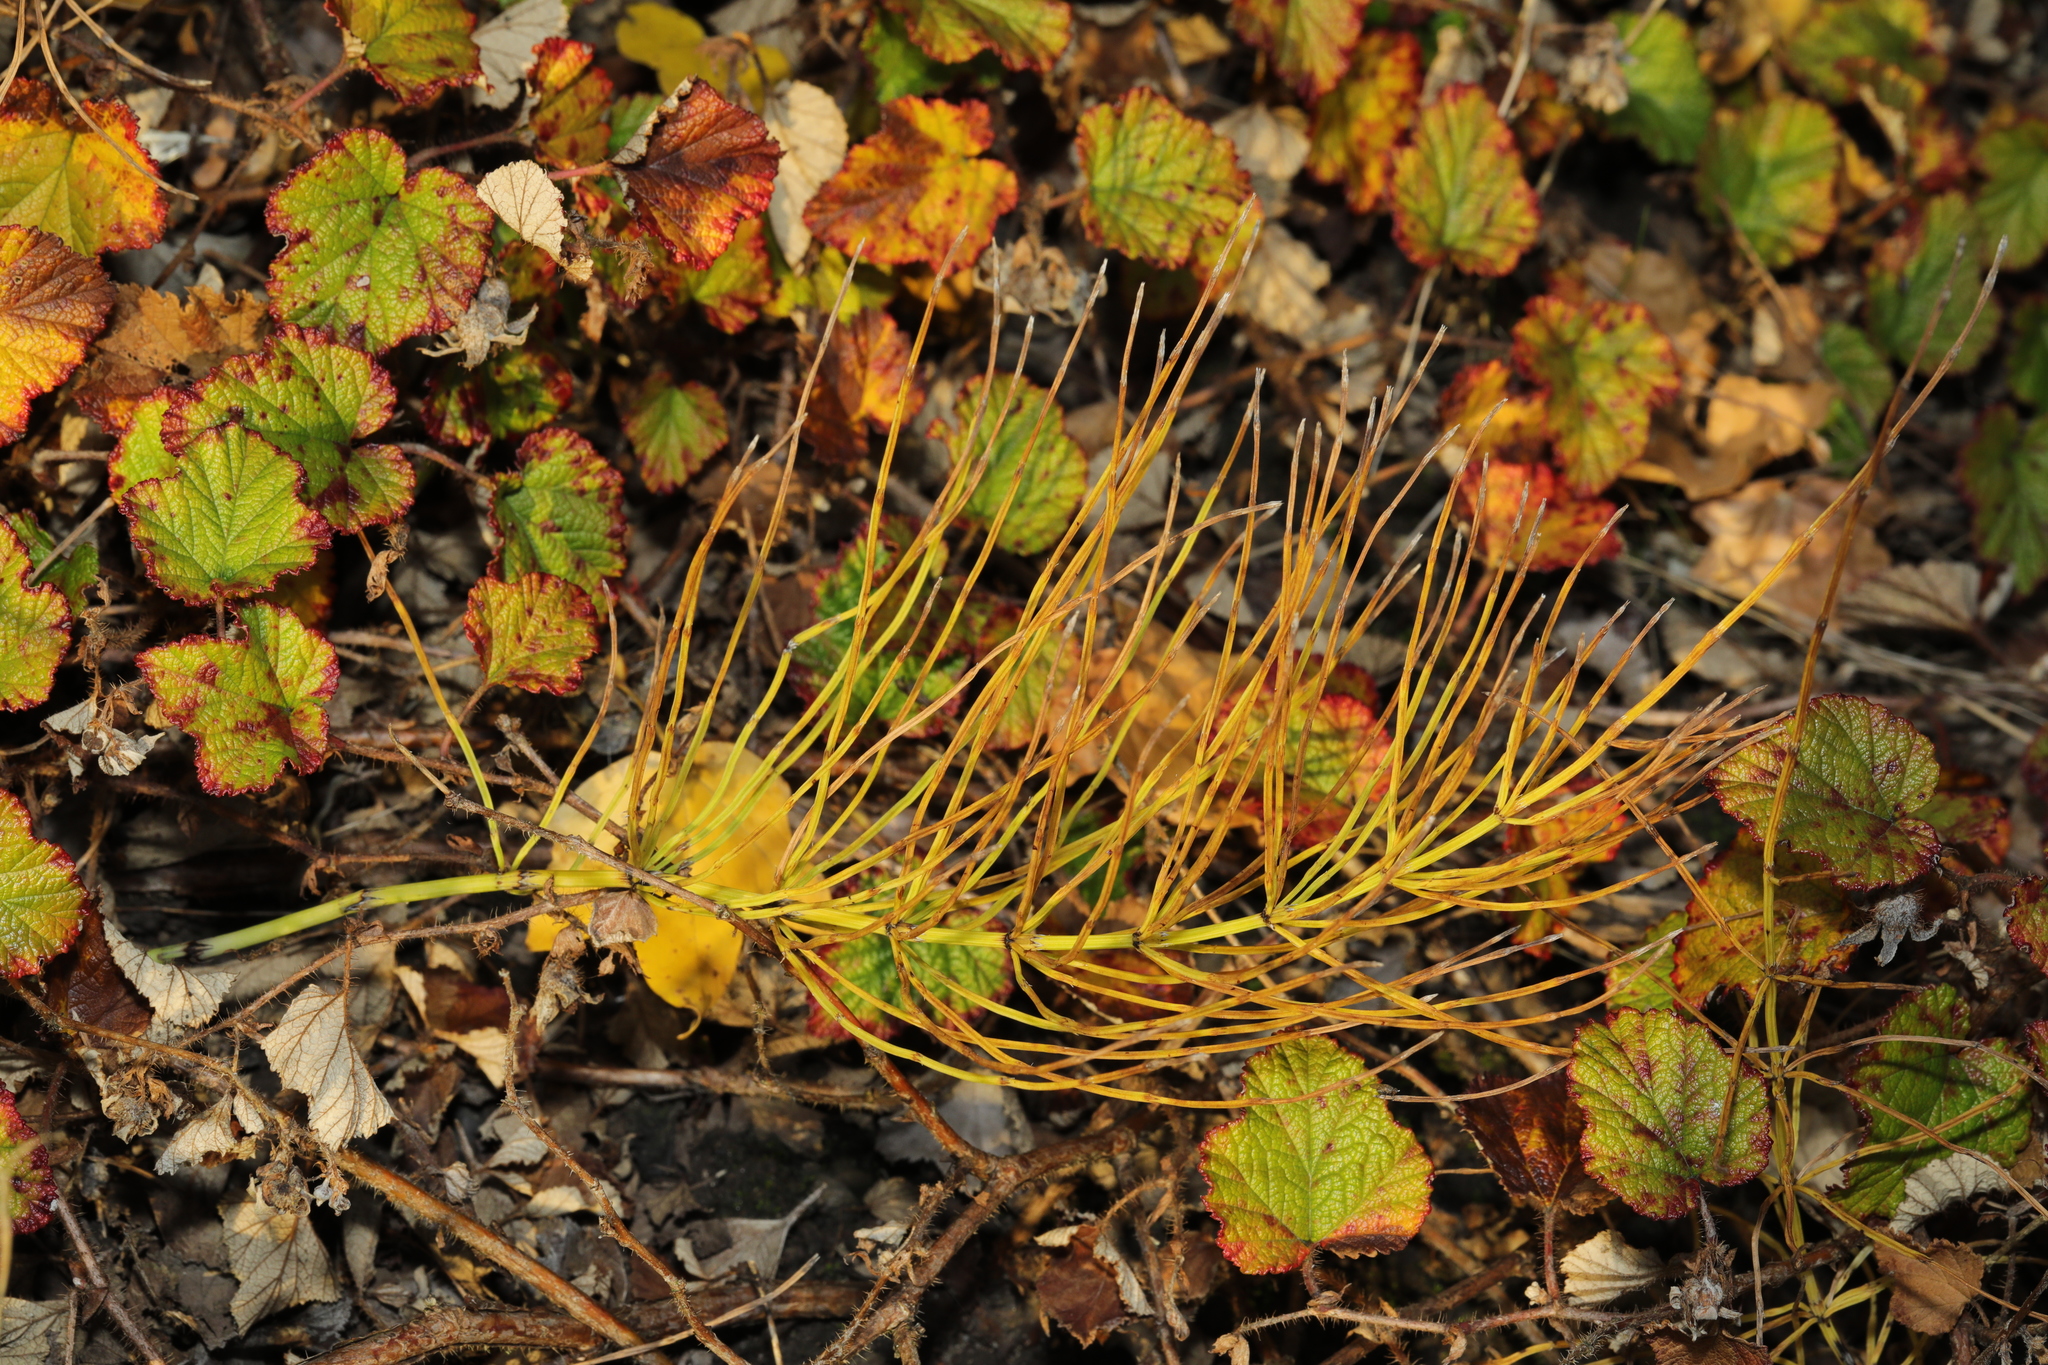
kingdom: Plantae
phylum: Tracheophyta
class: Polypodiopsida
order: Equisetales
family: Equisetaceae
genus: Equisetum
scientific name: Equisetum arvense
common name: Field horsetail
